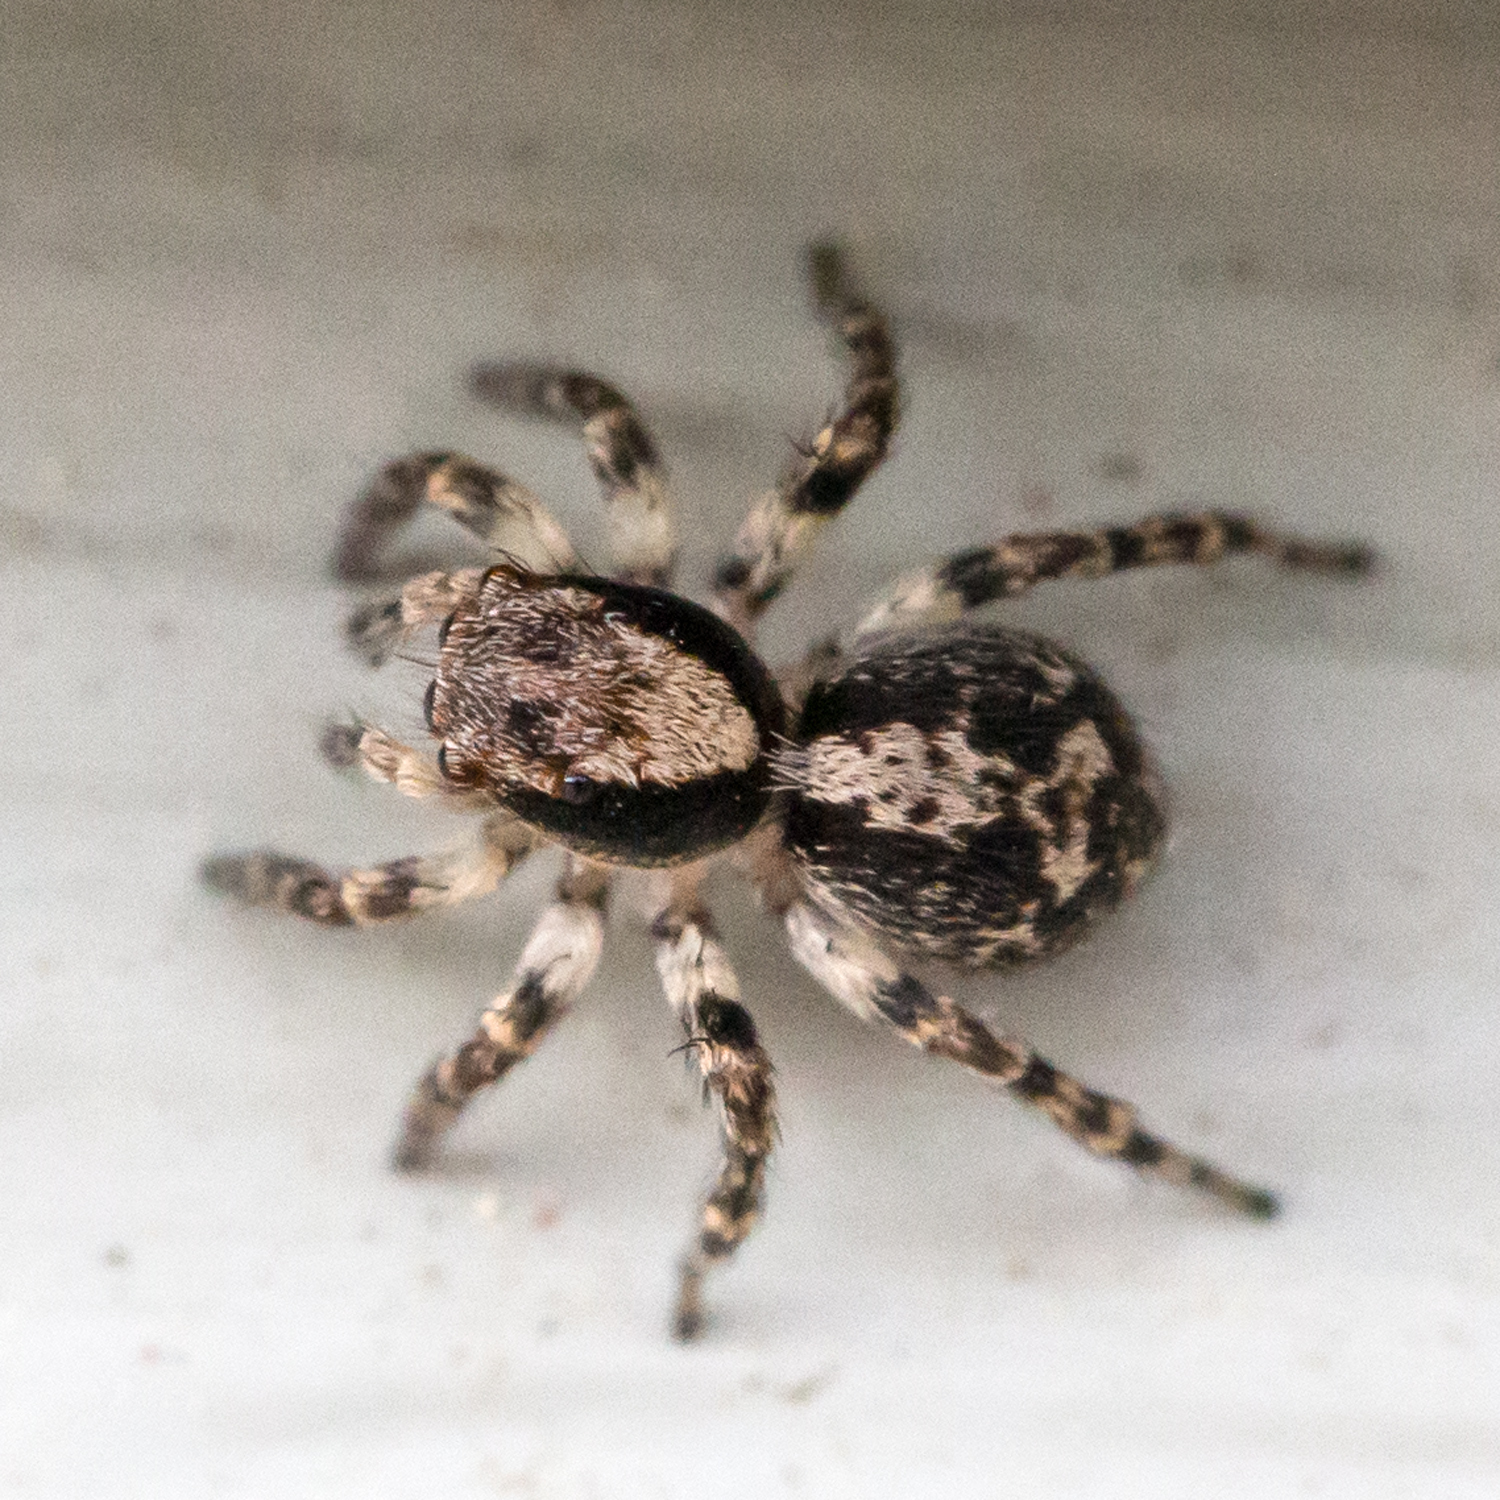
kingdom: Animalia
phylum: Arthropoda
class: Arachnida
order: Araneae
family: Salticidae
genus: Naphrys
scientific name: Naphrys pulex
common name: Flea jumping spider
